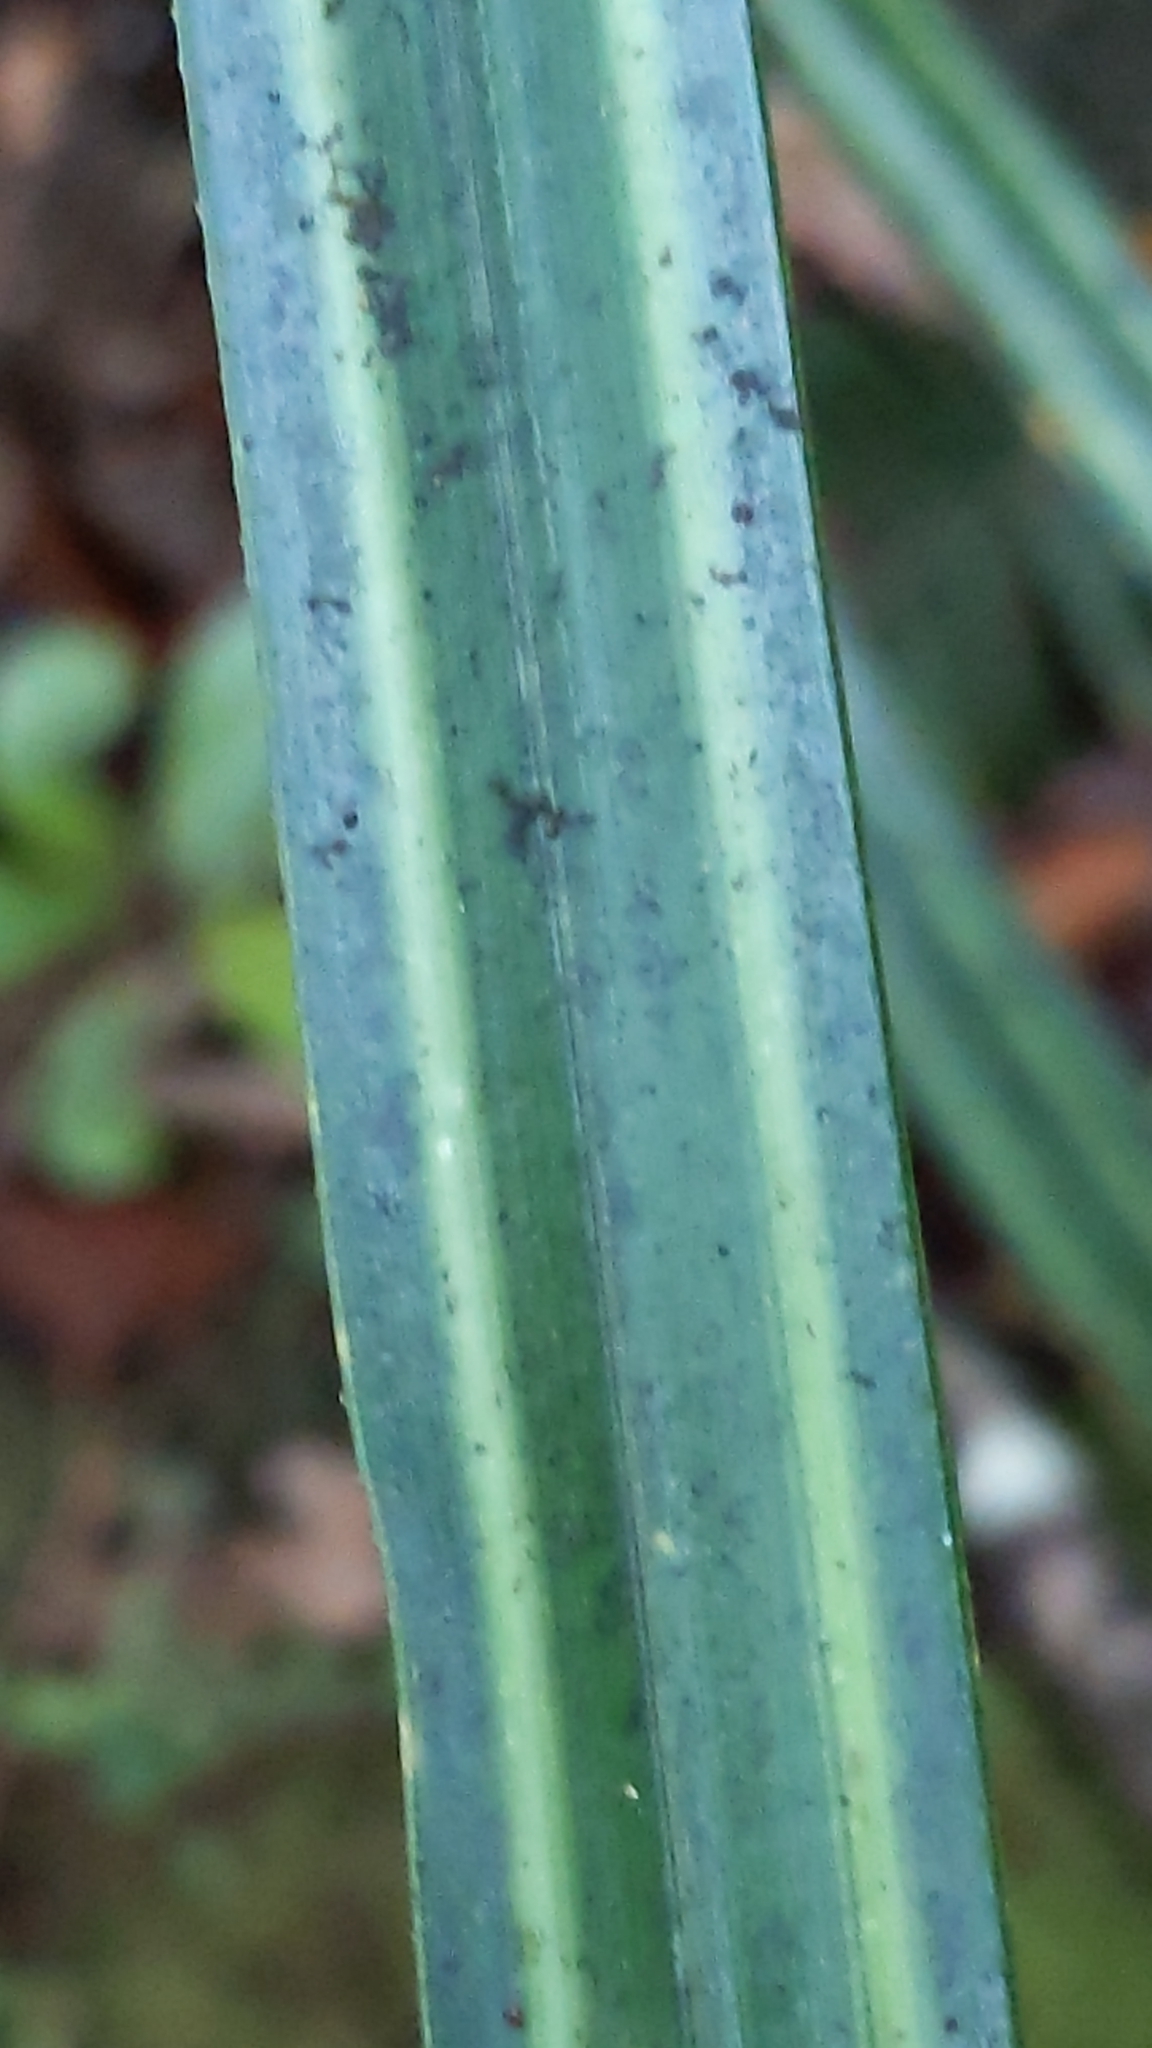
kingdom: Plantae
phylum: Tracheophyta
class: Liliopsida
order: Pandanales
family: Pandanaceae
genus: Freycinetia
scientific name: Freycinetia banksii
